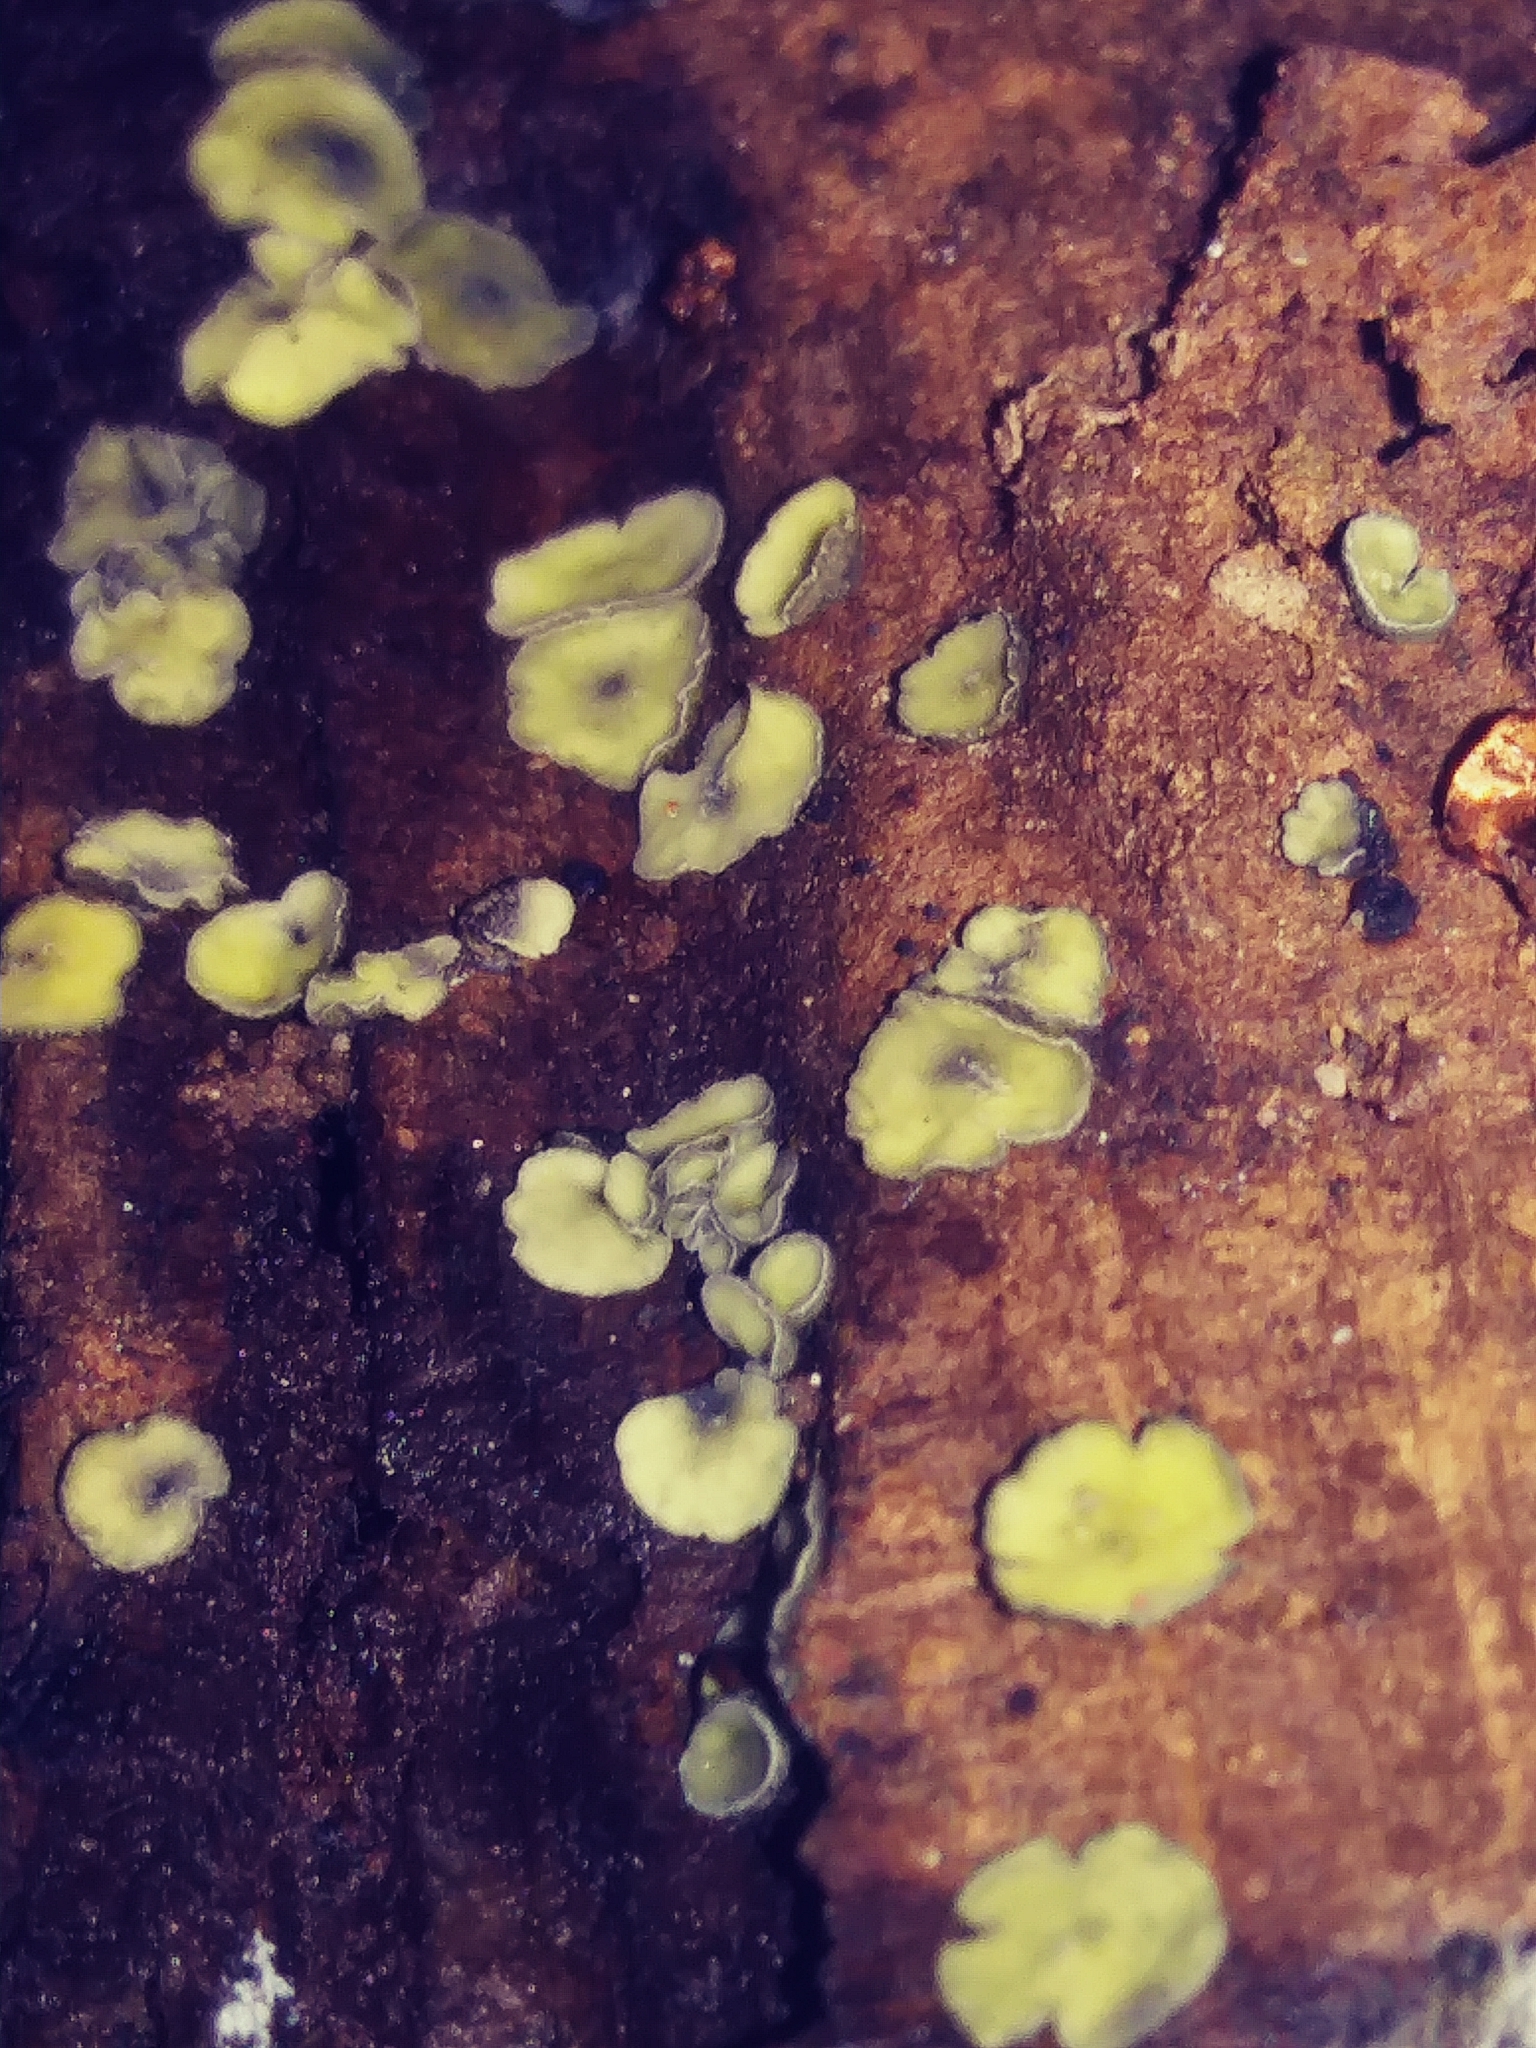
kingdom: Fungi
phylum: Ascomycota
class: Leotiomycetes
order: Helotiales
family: Chlorospleniaceae
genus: Chlorosplenium
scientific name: Chlorosplenium chlora
